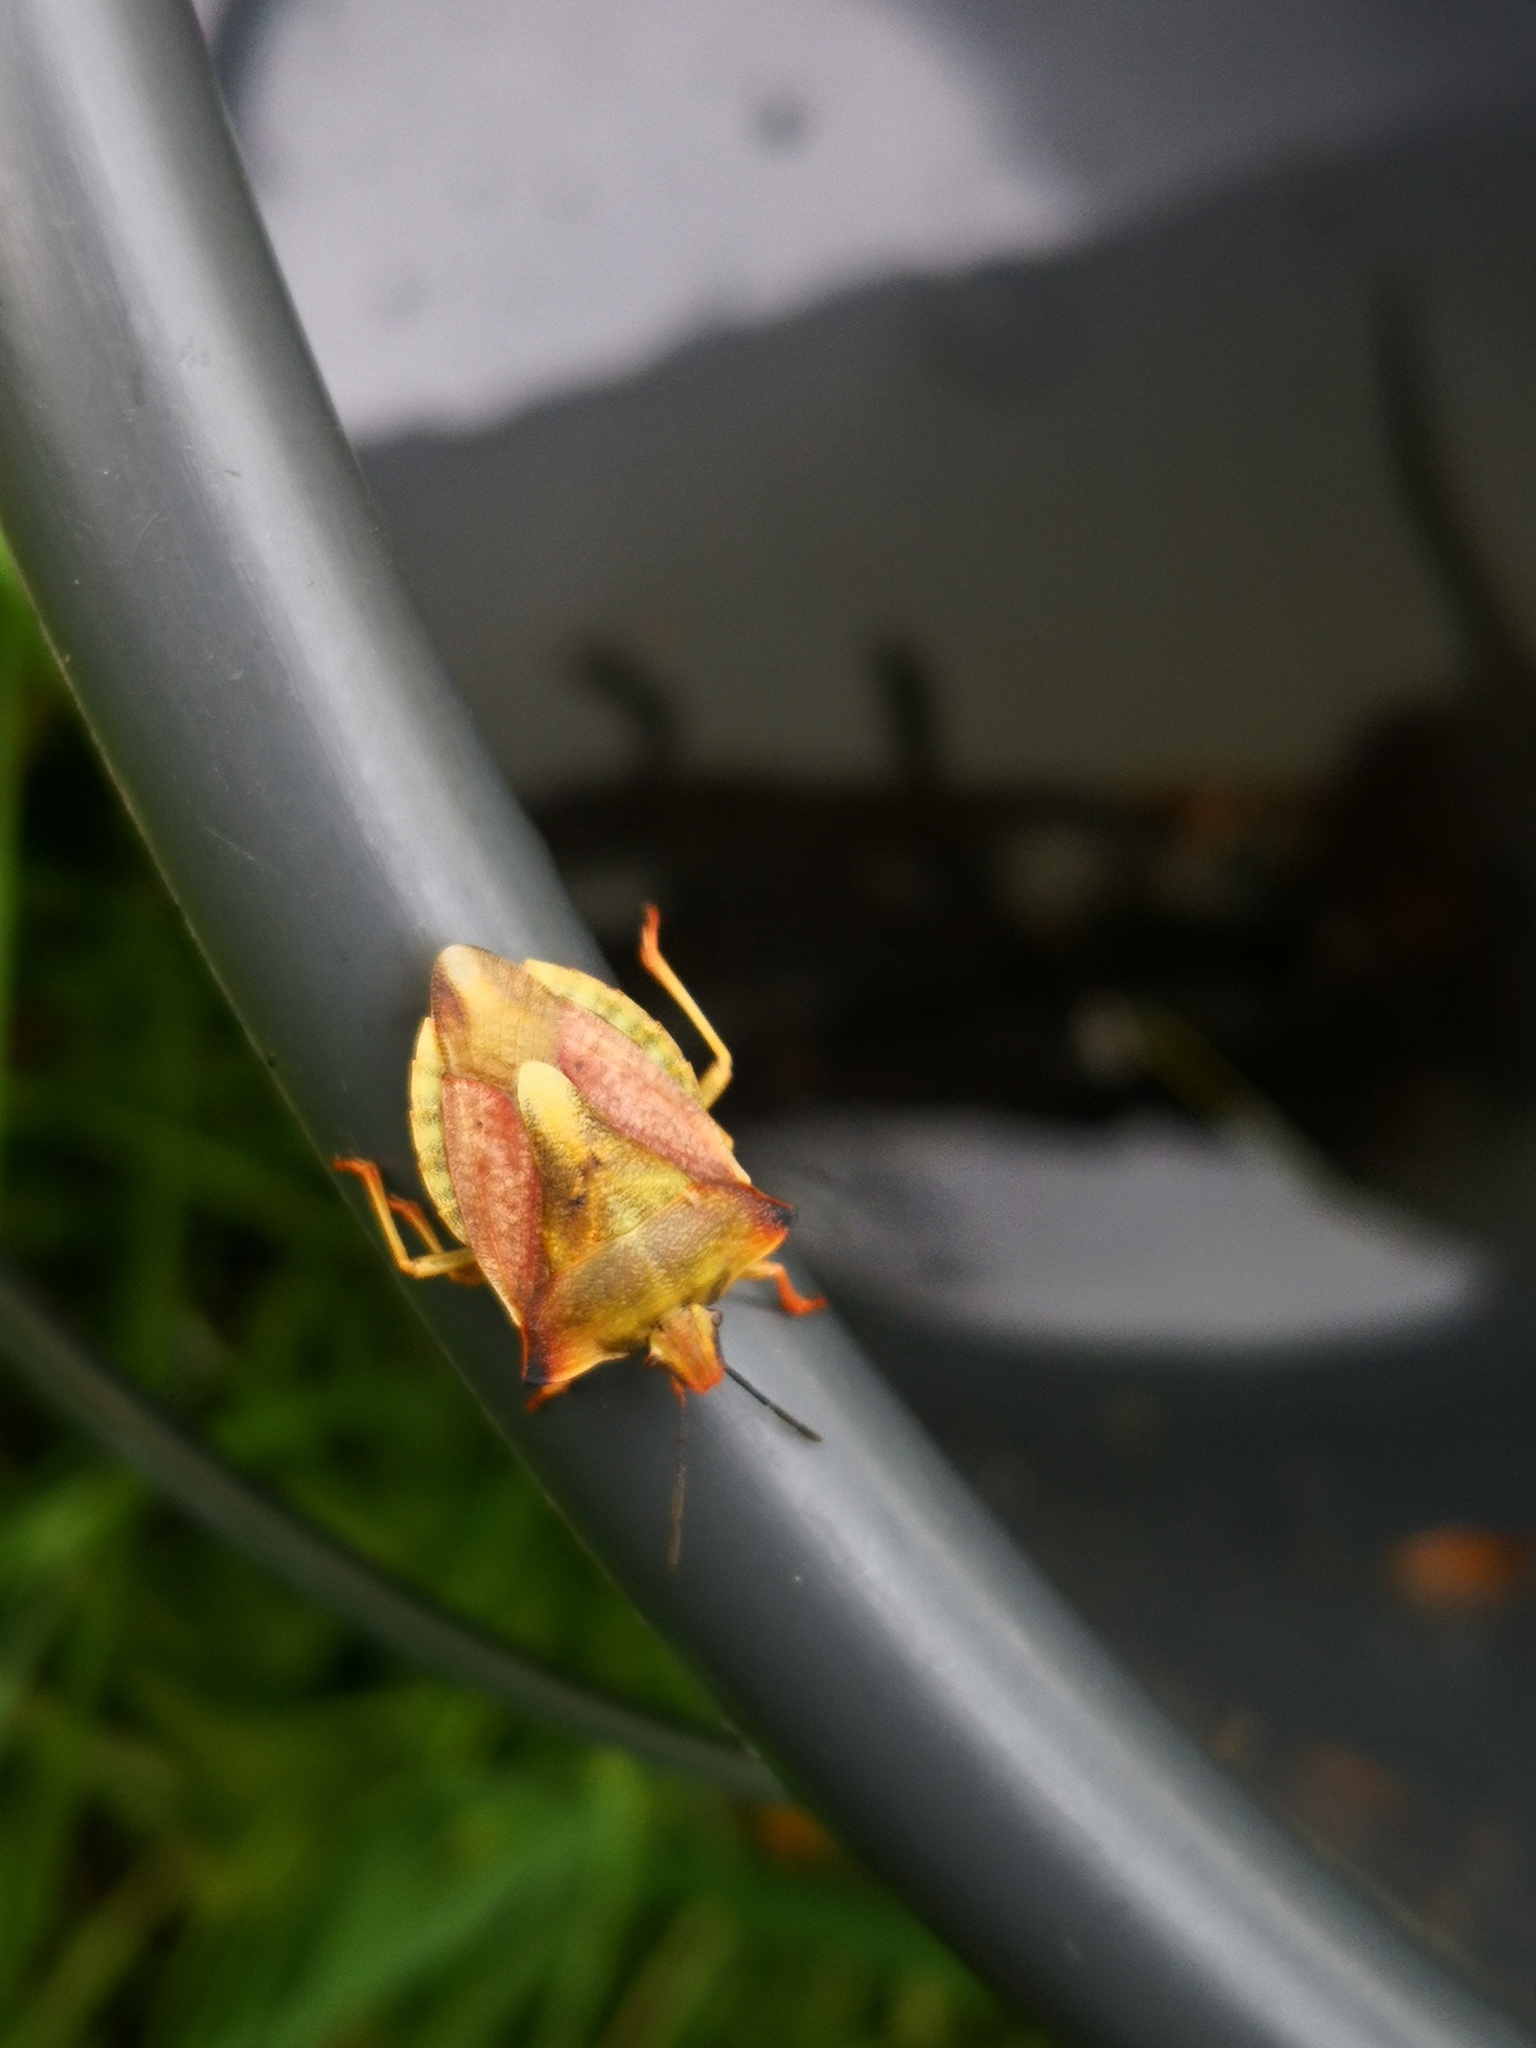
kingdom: Animalia
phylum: Arthropoda
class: Insecta
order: Hemiptera
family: Pentatomidae
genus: Carpocoris
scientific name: Carpocoris fuscispinus
